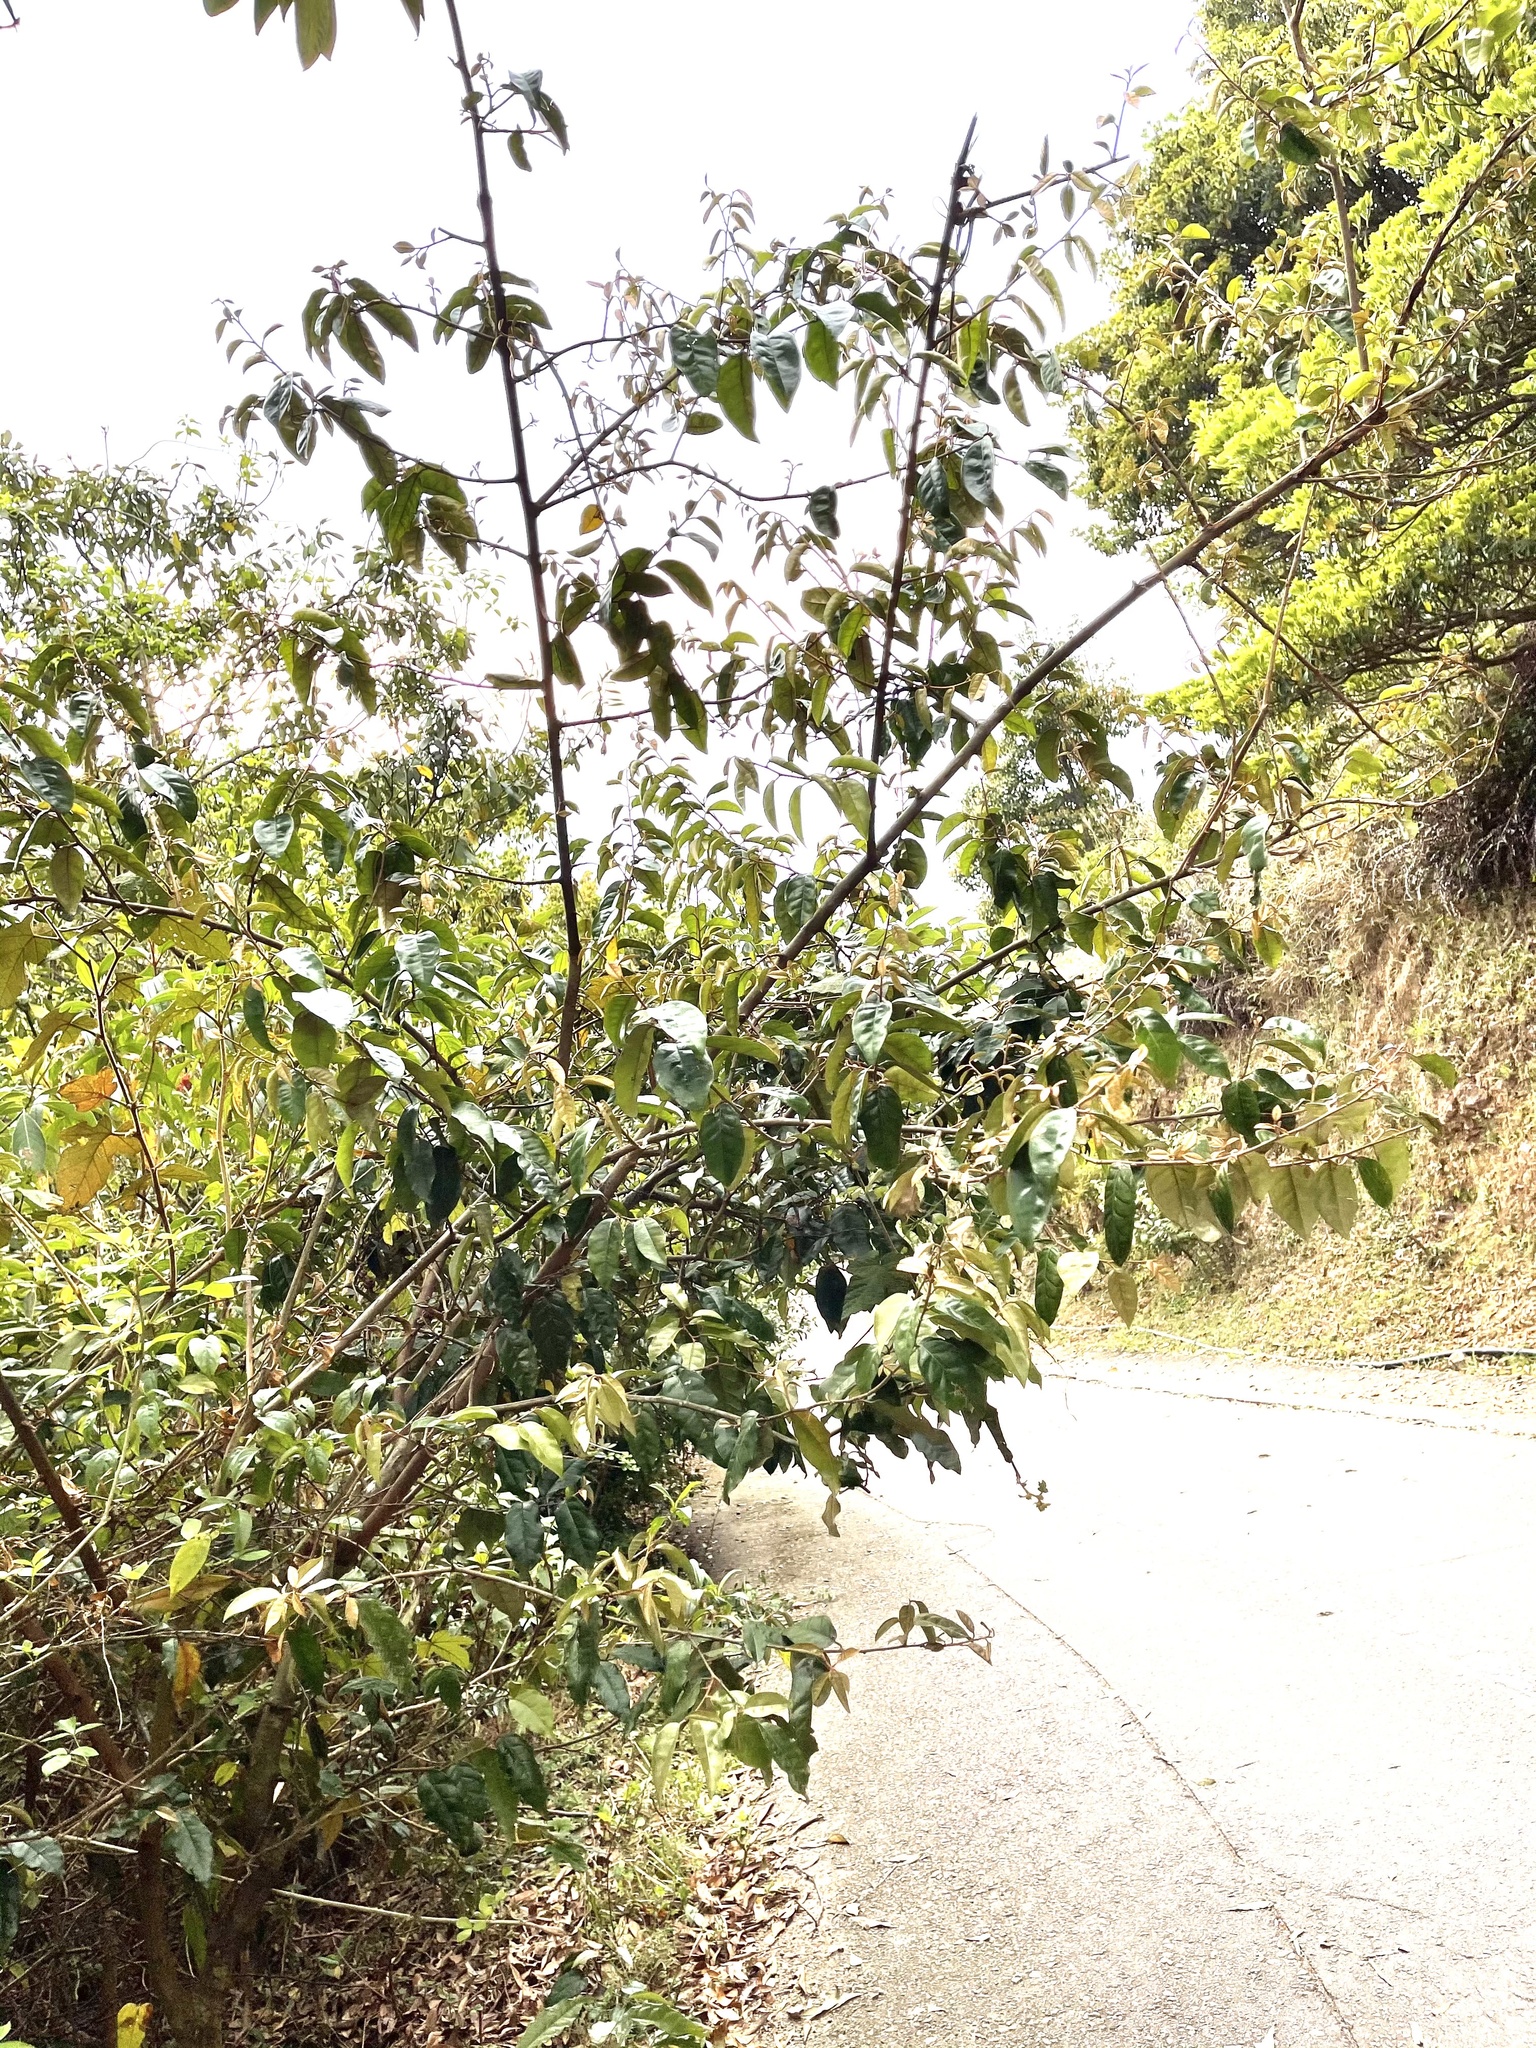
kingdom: Plantae
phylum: Tracheophyta
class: Magnoliopsida
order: Rosales
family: Elaeagnaceae
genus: Elaeagnus
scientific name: Elaeagnus loureiroi
